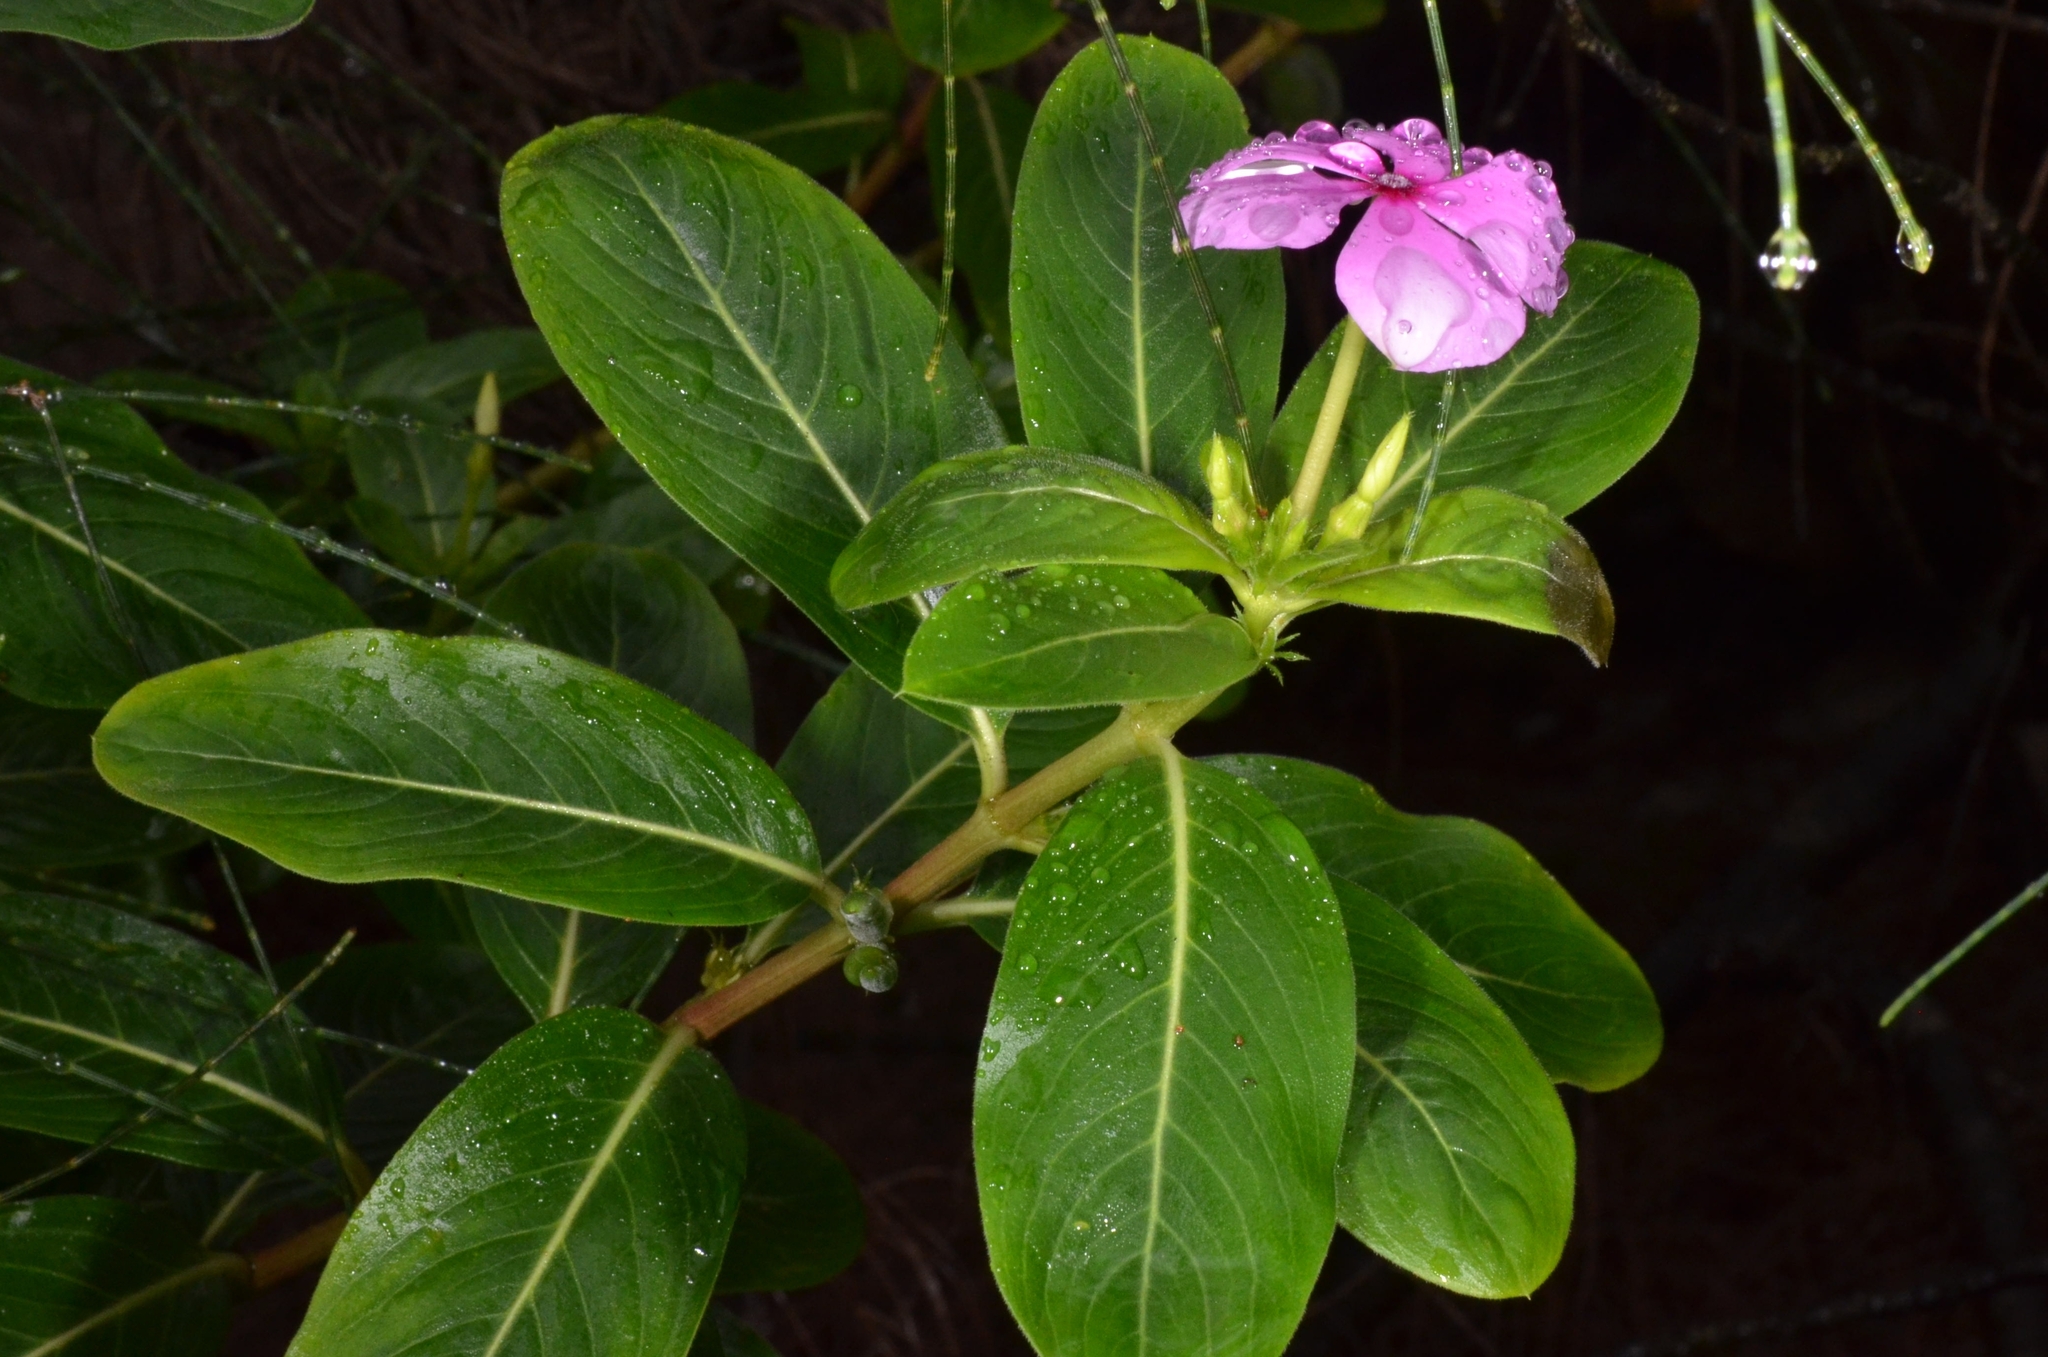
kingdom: Plantae
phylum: Tracheophyta
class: Magnoliopsida
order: Gentianales
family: Apocynaceae
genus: Catharanthus
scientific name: Catharanthus roseus
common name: Madagascar periwinkle
